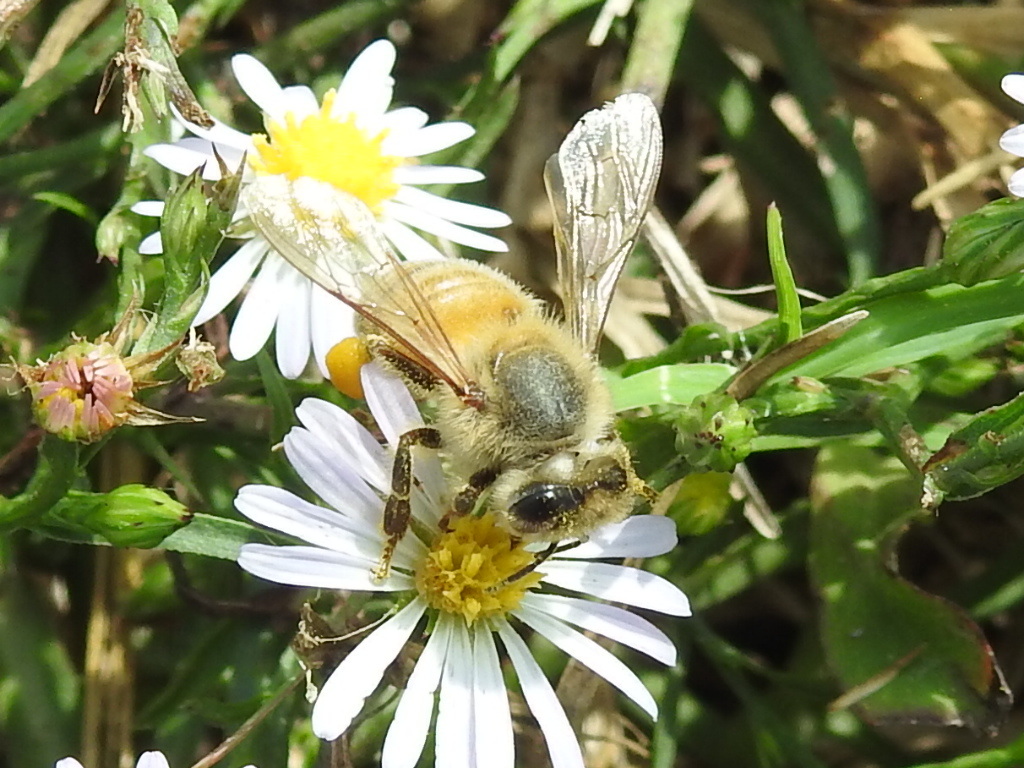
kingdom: Animalia
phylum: Arthropoda
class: Insecta
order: Hymenoptera
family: Apidae
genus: Apis
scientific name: Apis mellifera
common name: Honey bee
